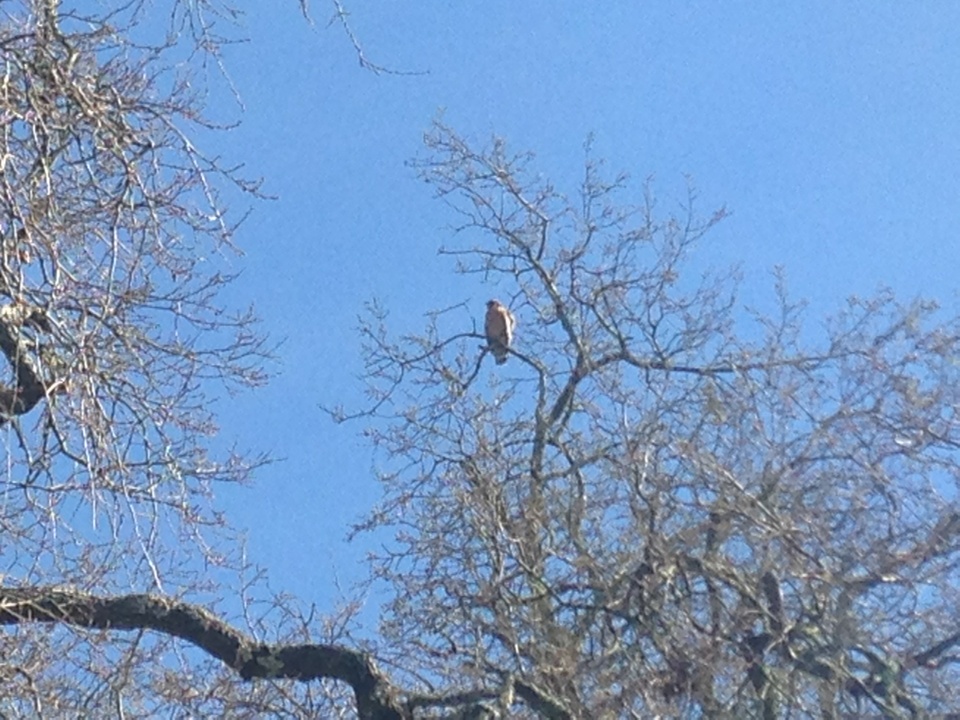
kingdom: Animalia
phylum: Chordata
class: Aves
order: Accipitriformes
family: Accipitridae
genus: Buteo
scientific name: Buteo lineatus
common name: Red-shouldered hawk
